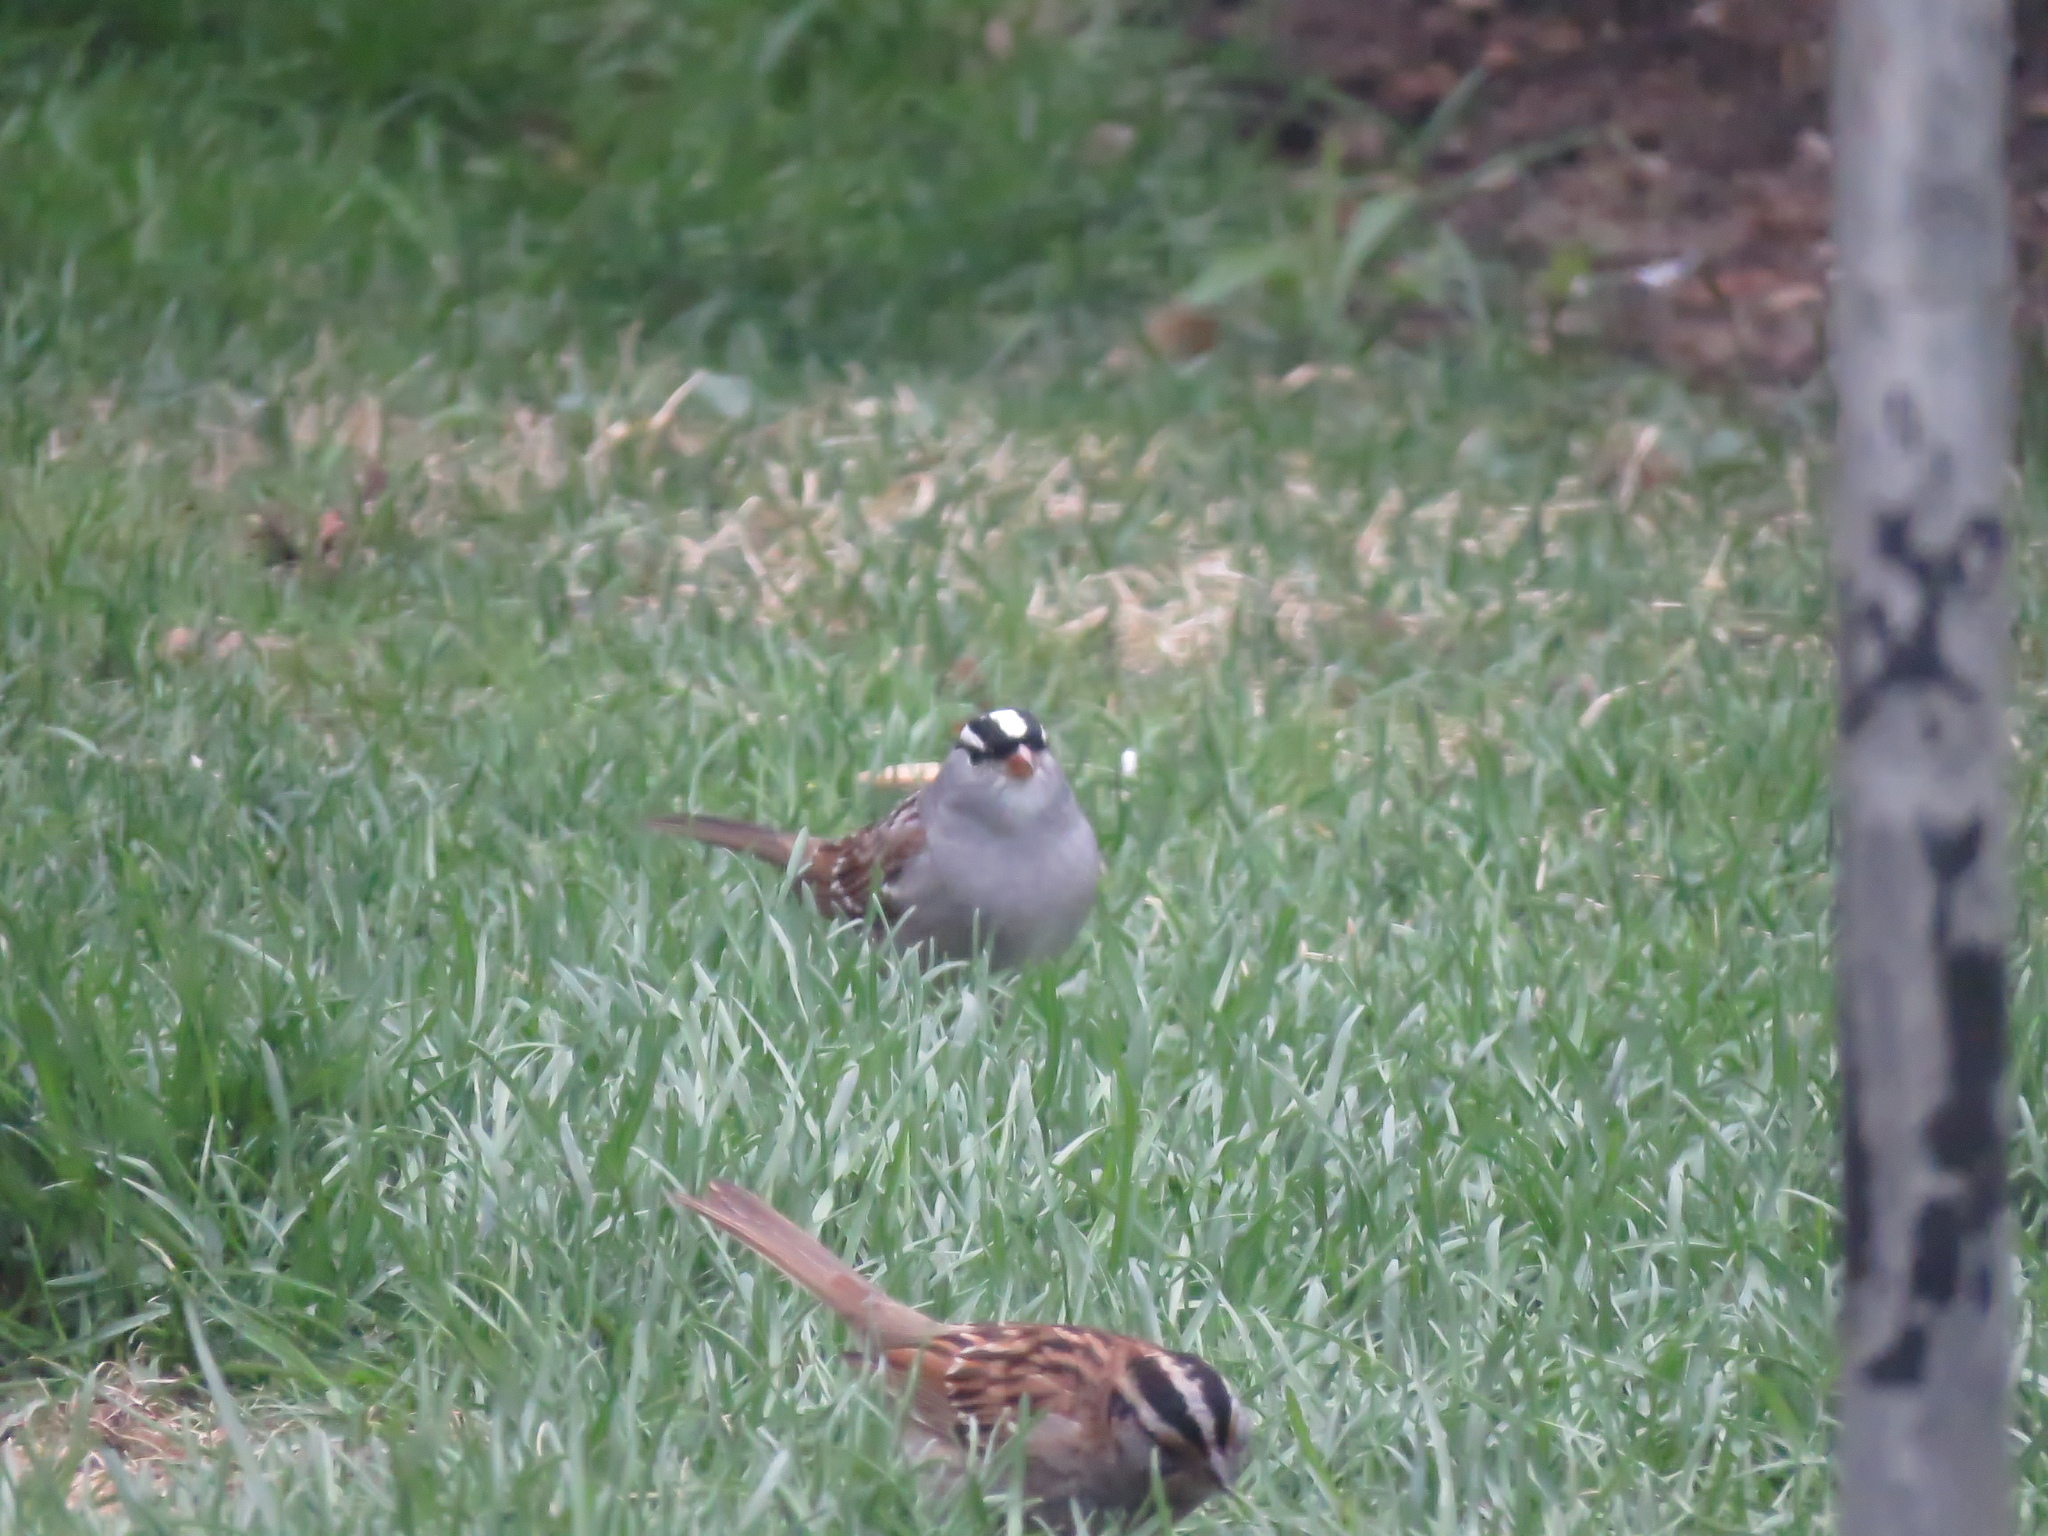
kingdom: Animalia
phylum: Chordata
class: Aves
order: Passeriformes
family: Passerellidae
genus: Zonotrichia
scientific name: Zonotrichia leucophrys
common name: White-crowned sparrow
